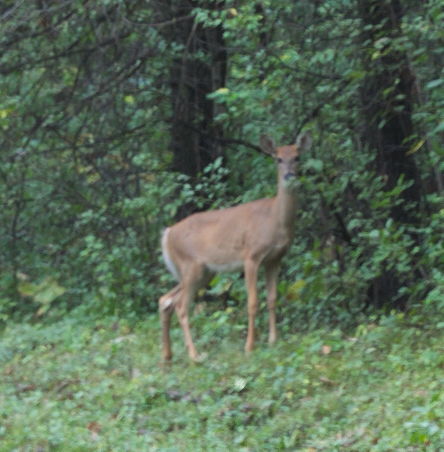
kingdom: Animalia
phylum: Chordata
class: Mammalia
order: Artiodactyla
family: Cervidae
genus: Odocoileus
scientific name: Odocoileus virginianus
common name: White-tailed deer
